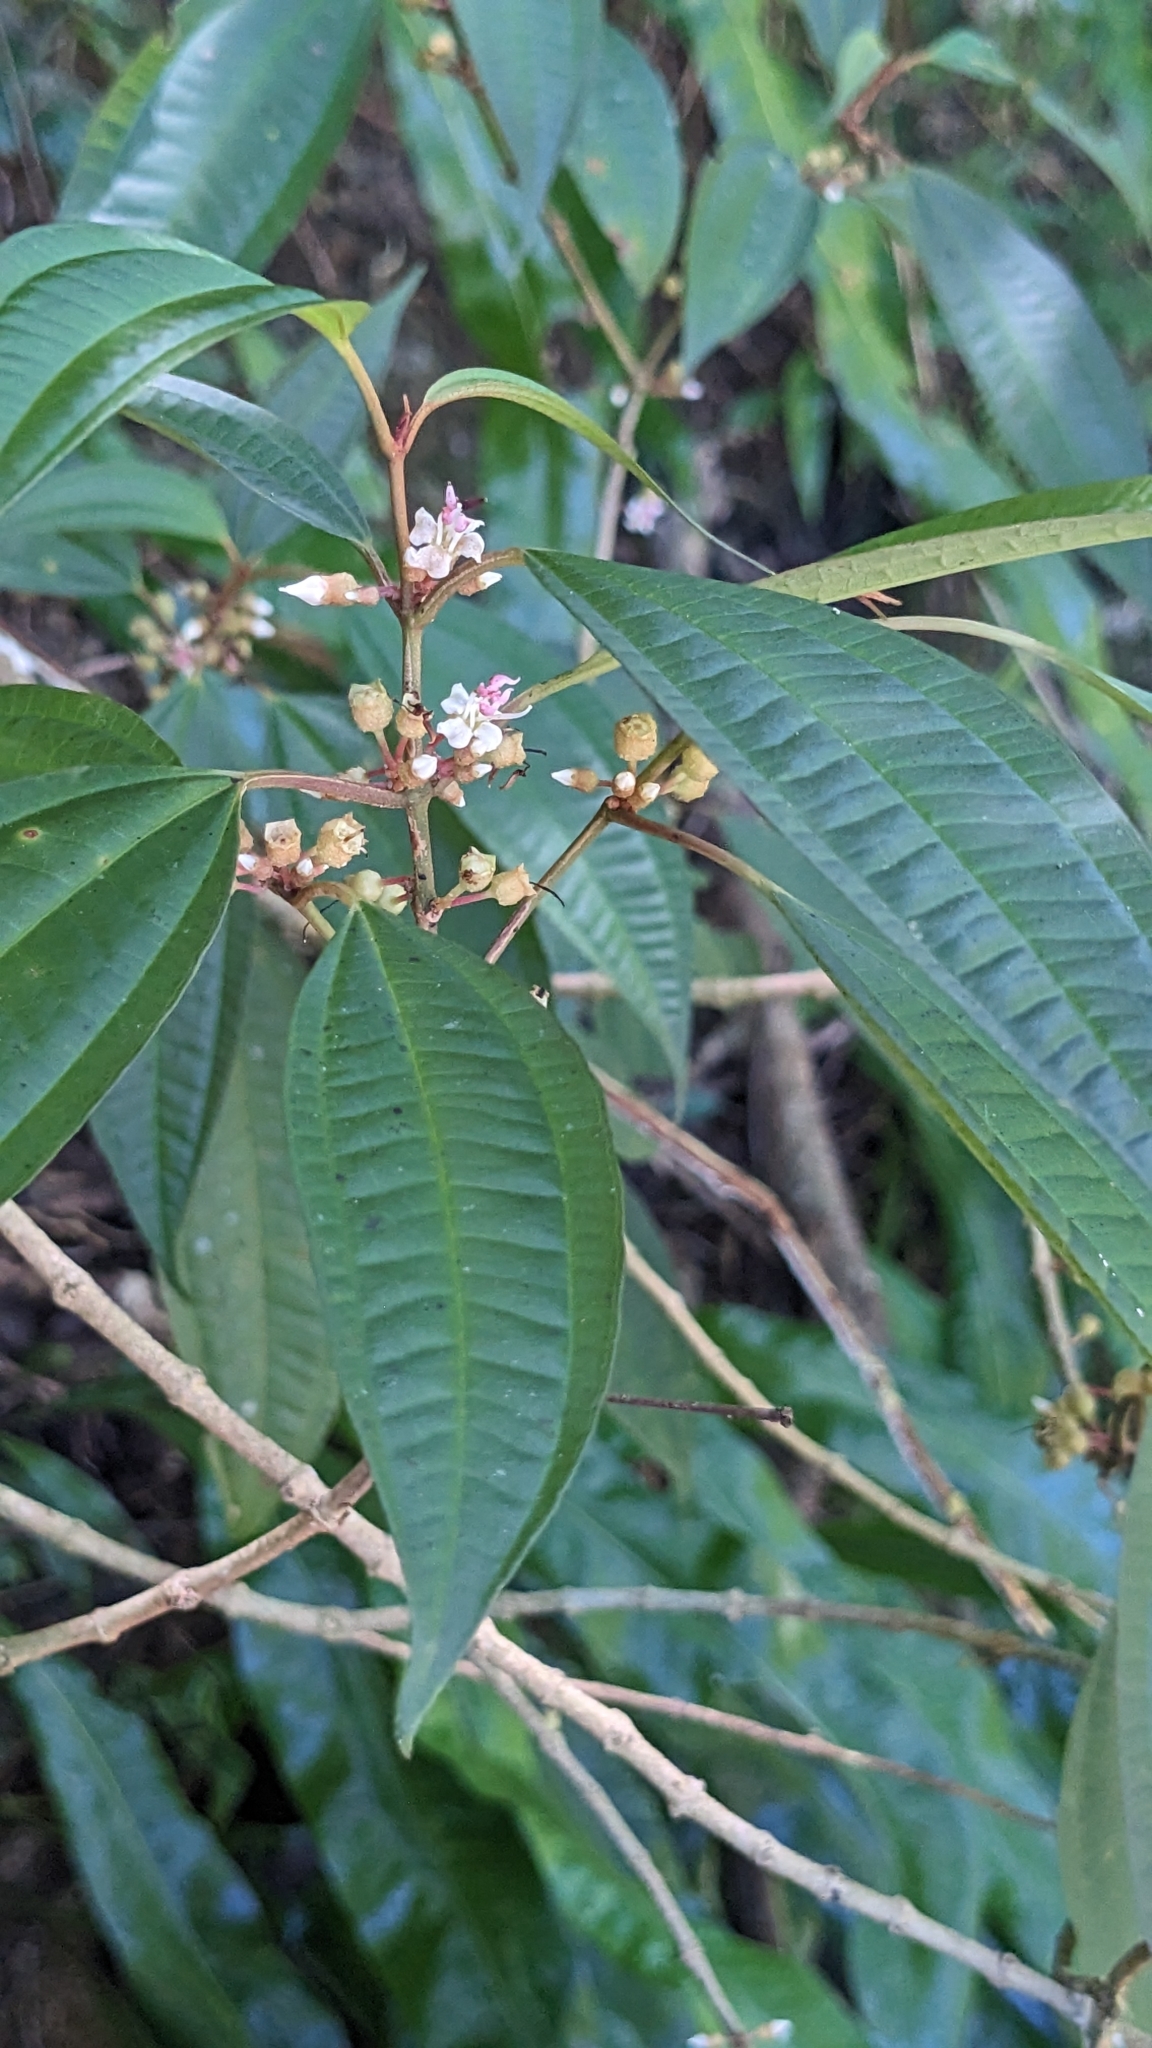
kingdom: Plantae
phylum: Tracheophyta
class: Magnoliopsida
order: Myrtales
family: Melastomataceae
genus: Blastus
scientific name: Blastus cochinchinensis
